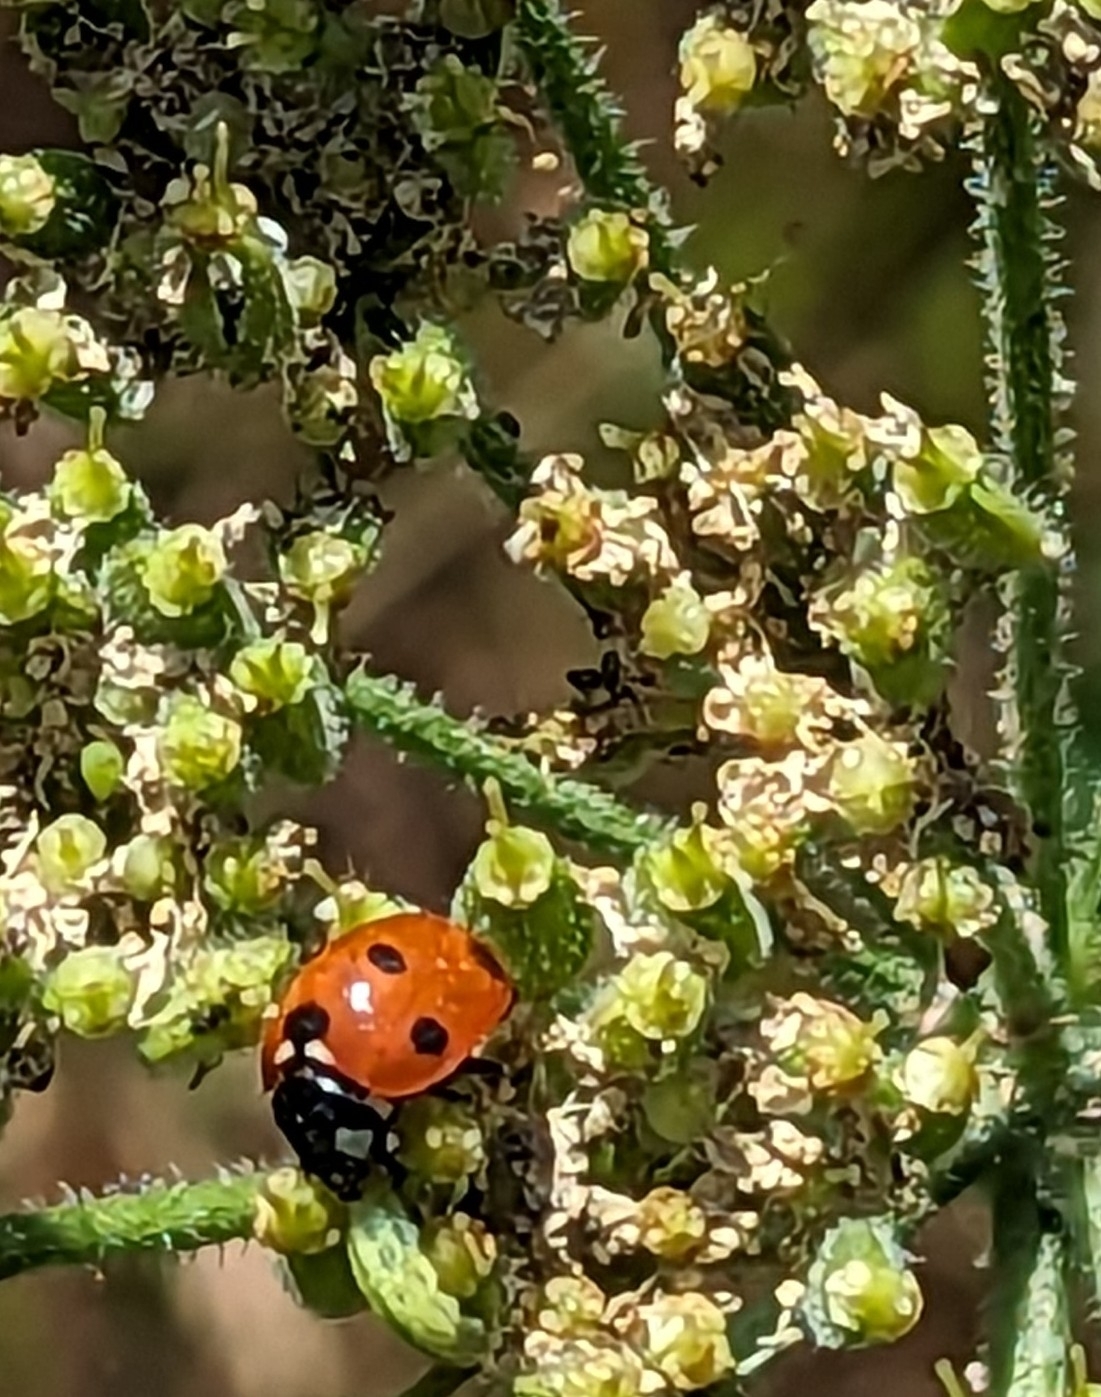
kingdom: Animalia
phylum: Arthropoda
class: Insecta
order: Coleoptera
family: Coccinellidae
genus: Coccinella
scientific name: Coccinella septempunctata
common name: Sevenspotted lady beetle
